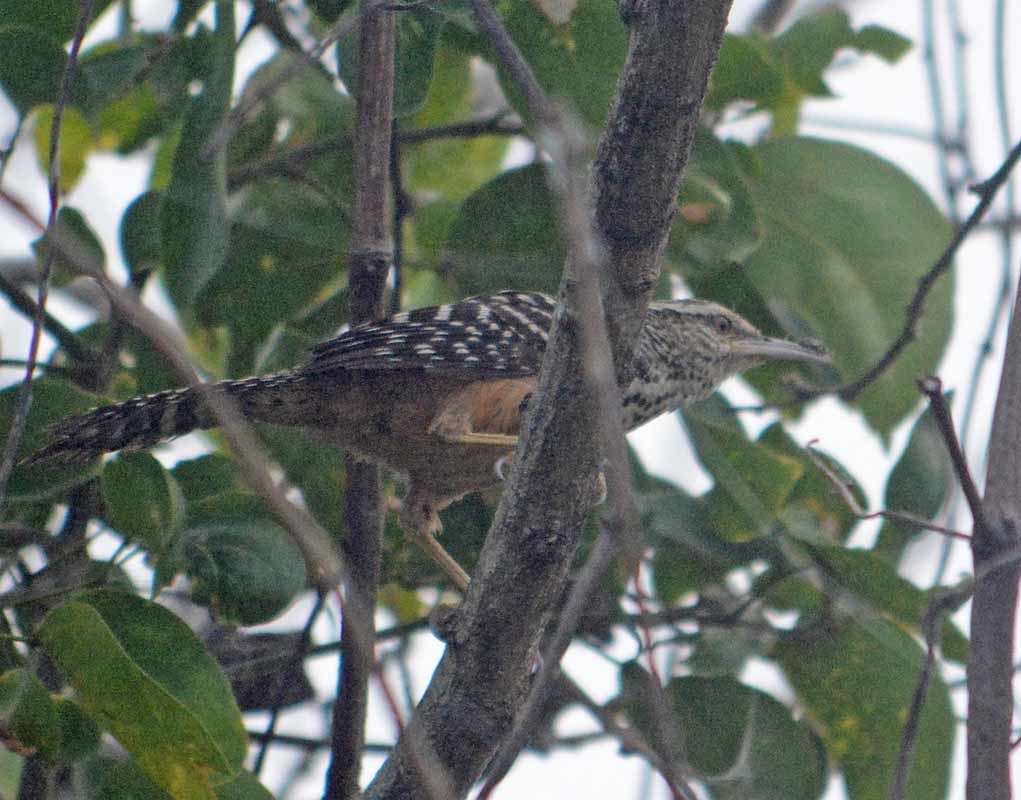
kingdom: Animalia
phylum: Chordata
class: Aves
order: Passeriformes
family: Troglodytidae
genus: Campylorhynchus
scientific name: Campylorhynchus zonatus
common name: Band-backed wren
